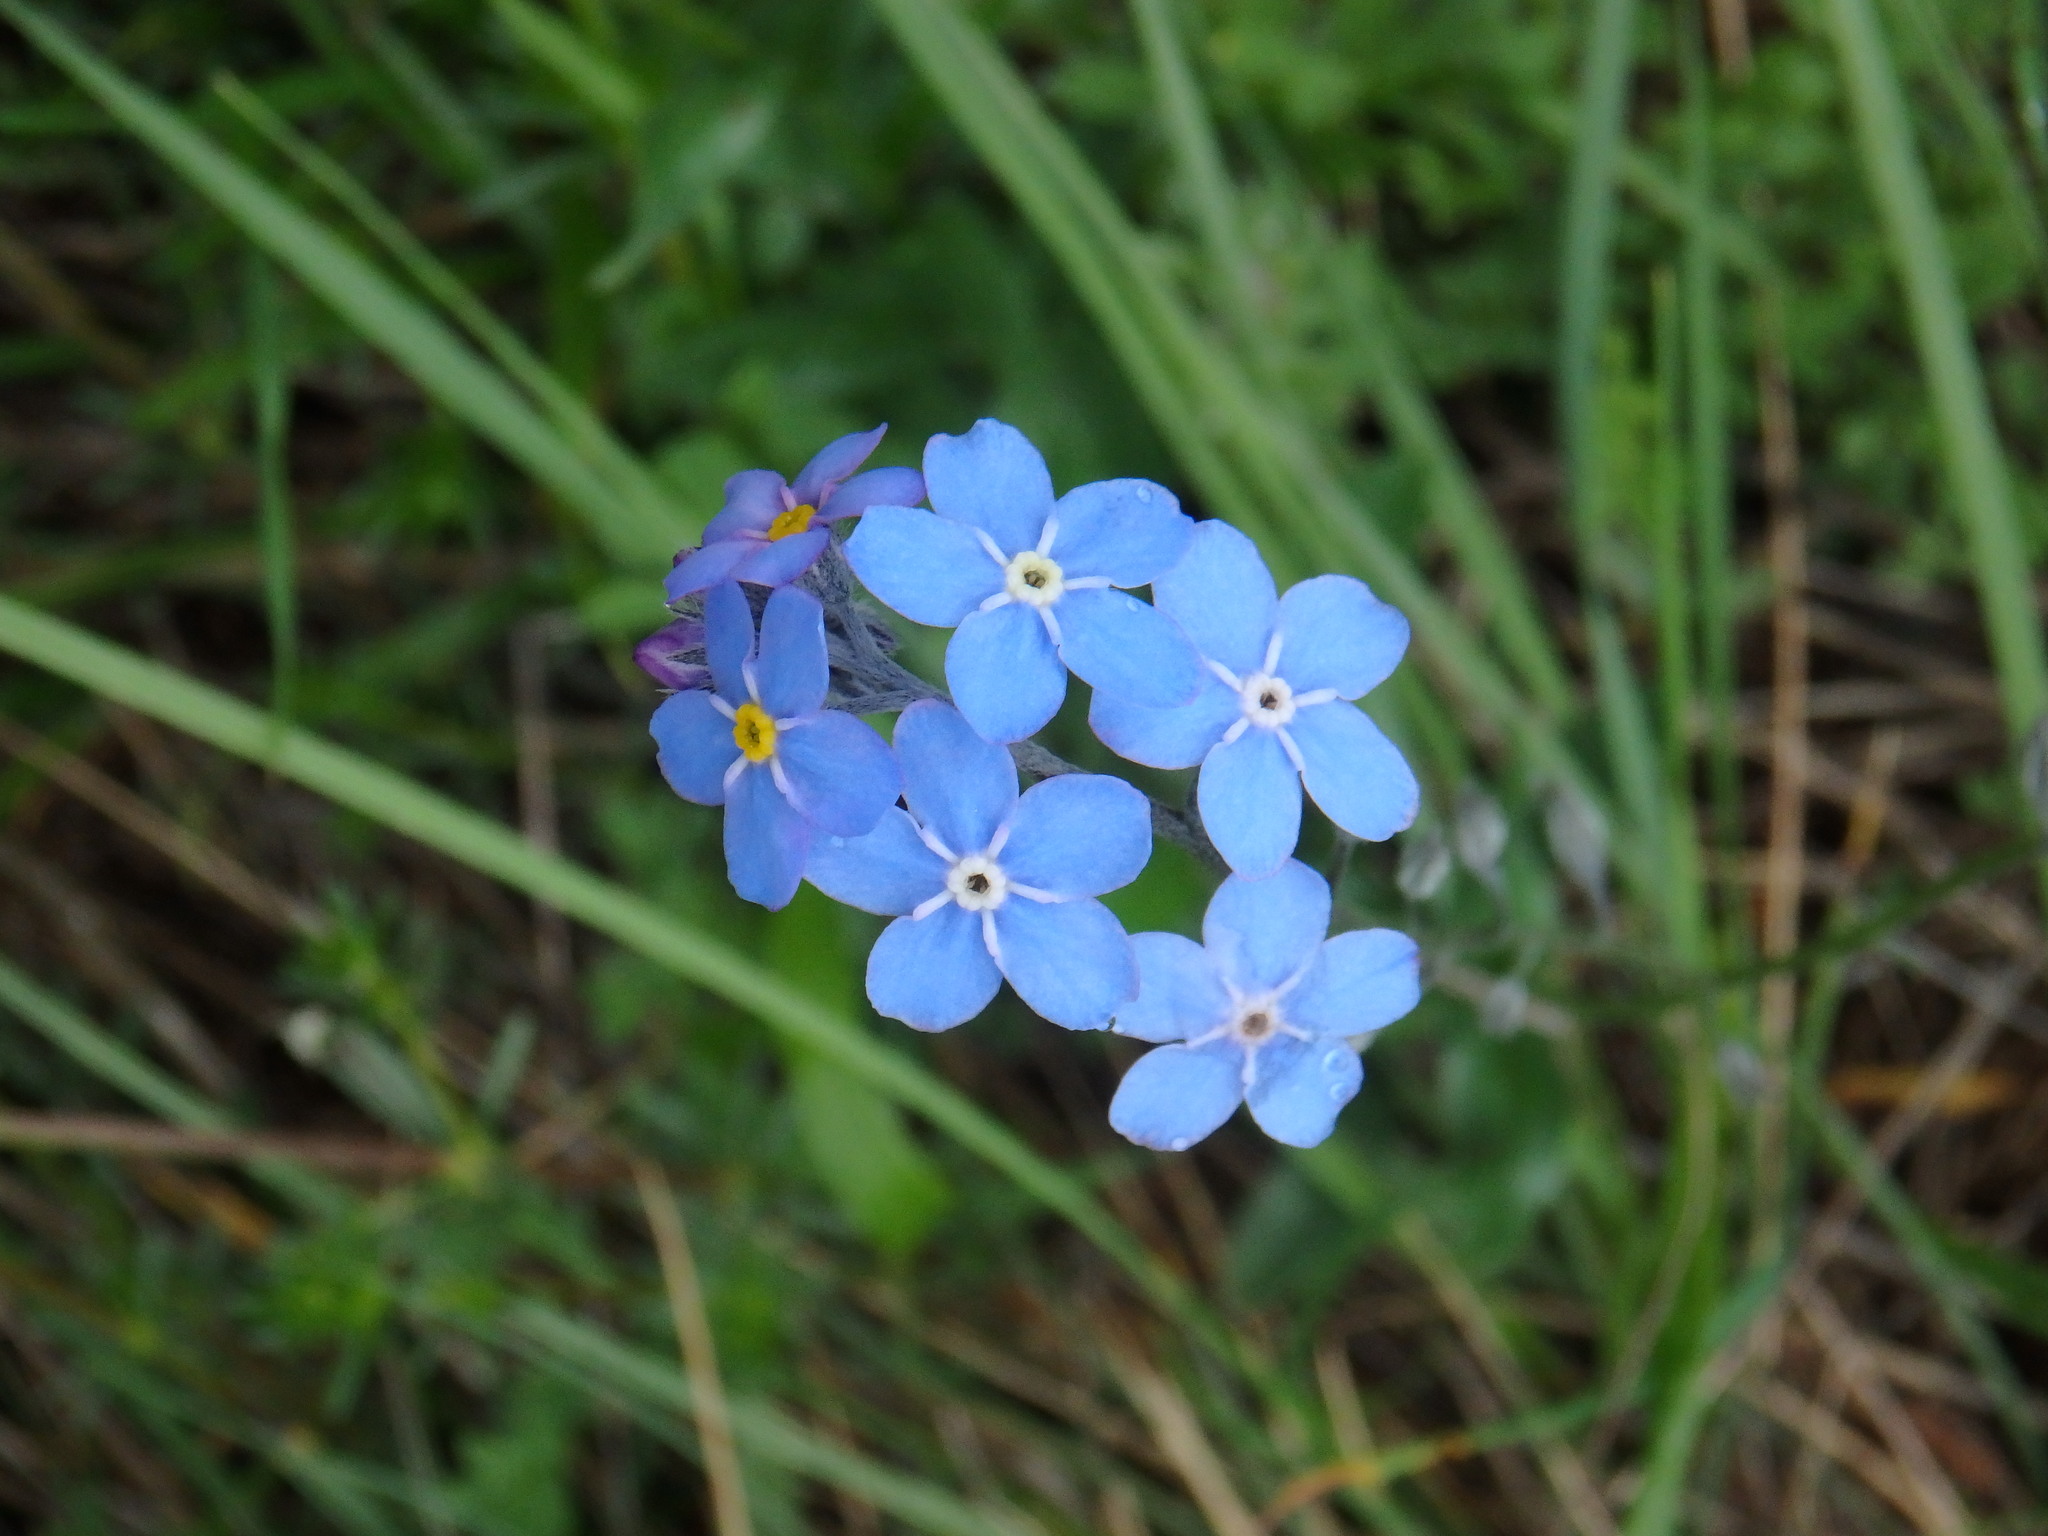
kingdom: Plantae
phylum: Tracheophyta
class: Magnoliopsida
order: Boraginales
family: Boraginaceae
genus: Myosotis
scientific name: Myosotis alpestris
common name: Alpine forget-me-not
